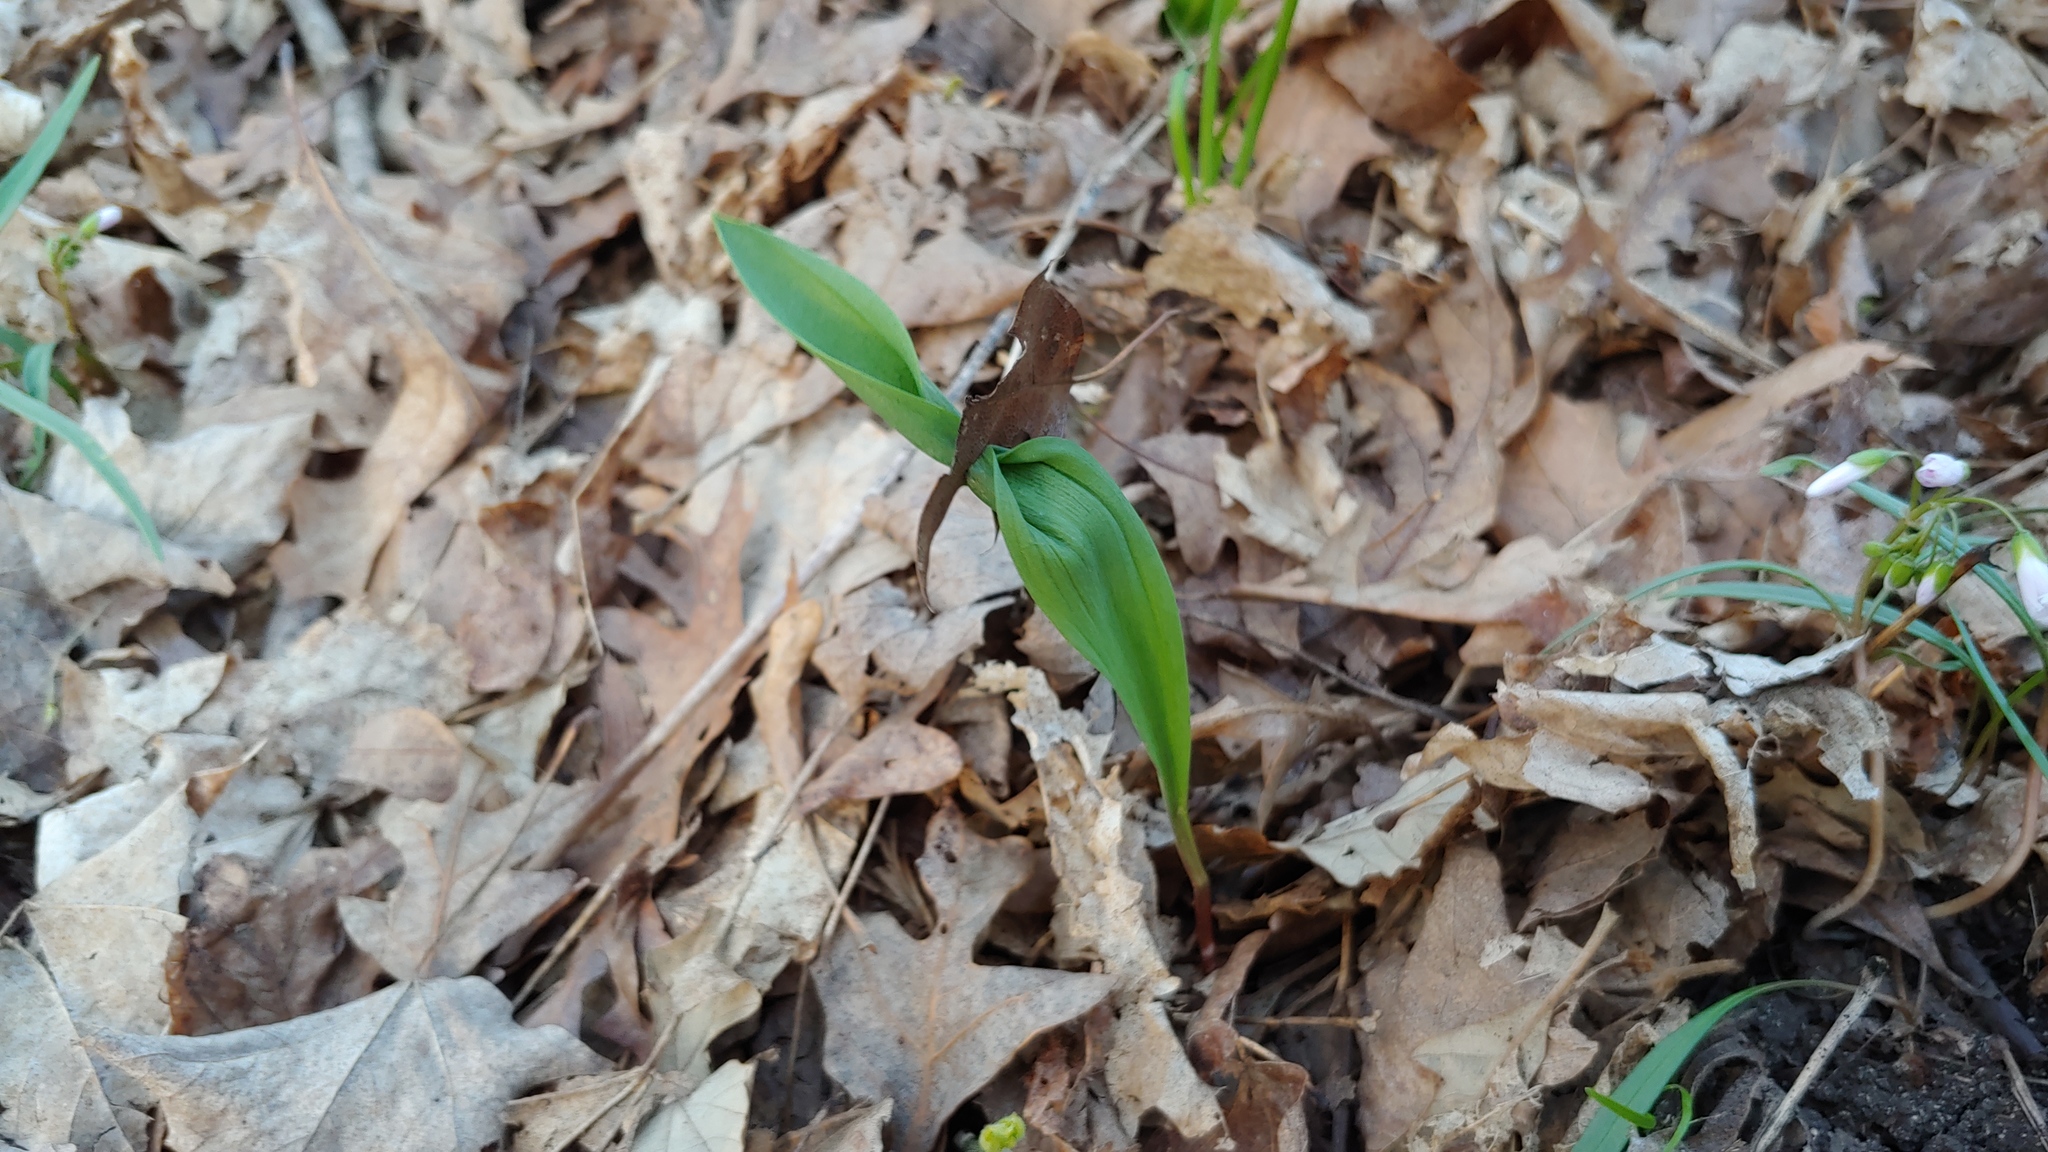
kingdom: Plantae
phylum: Tracheophyta
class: Liliopsida
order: Asparagales
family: Amaryllidaceae
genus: Allium
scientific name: Allium tricoccum
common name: Ramp
